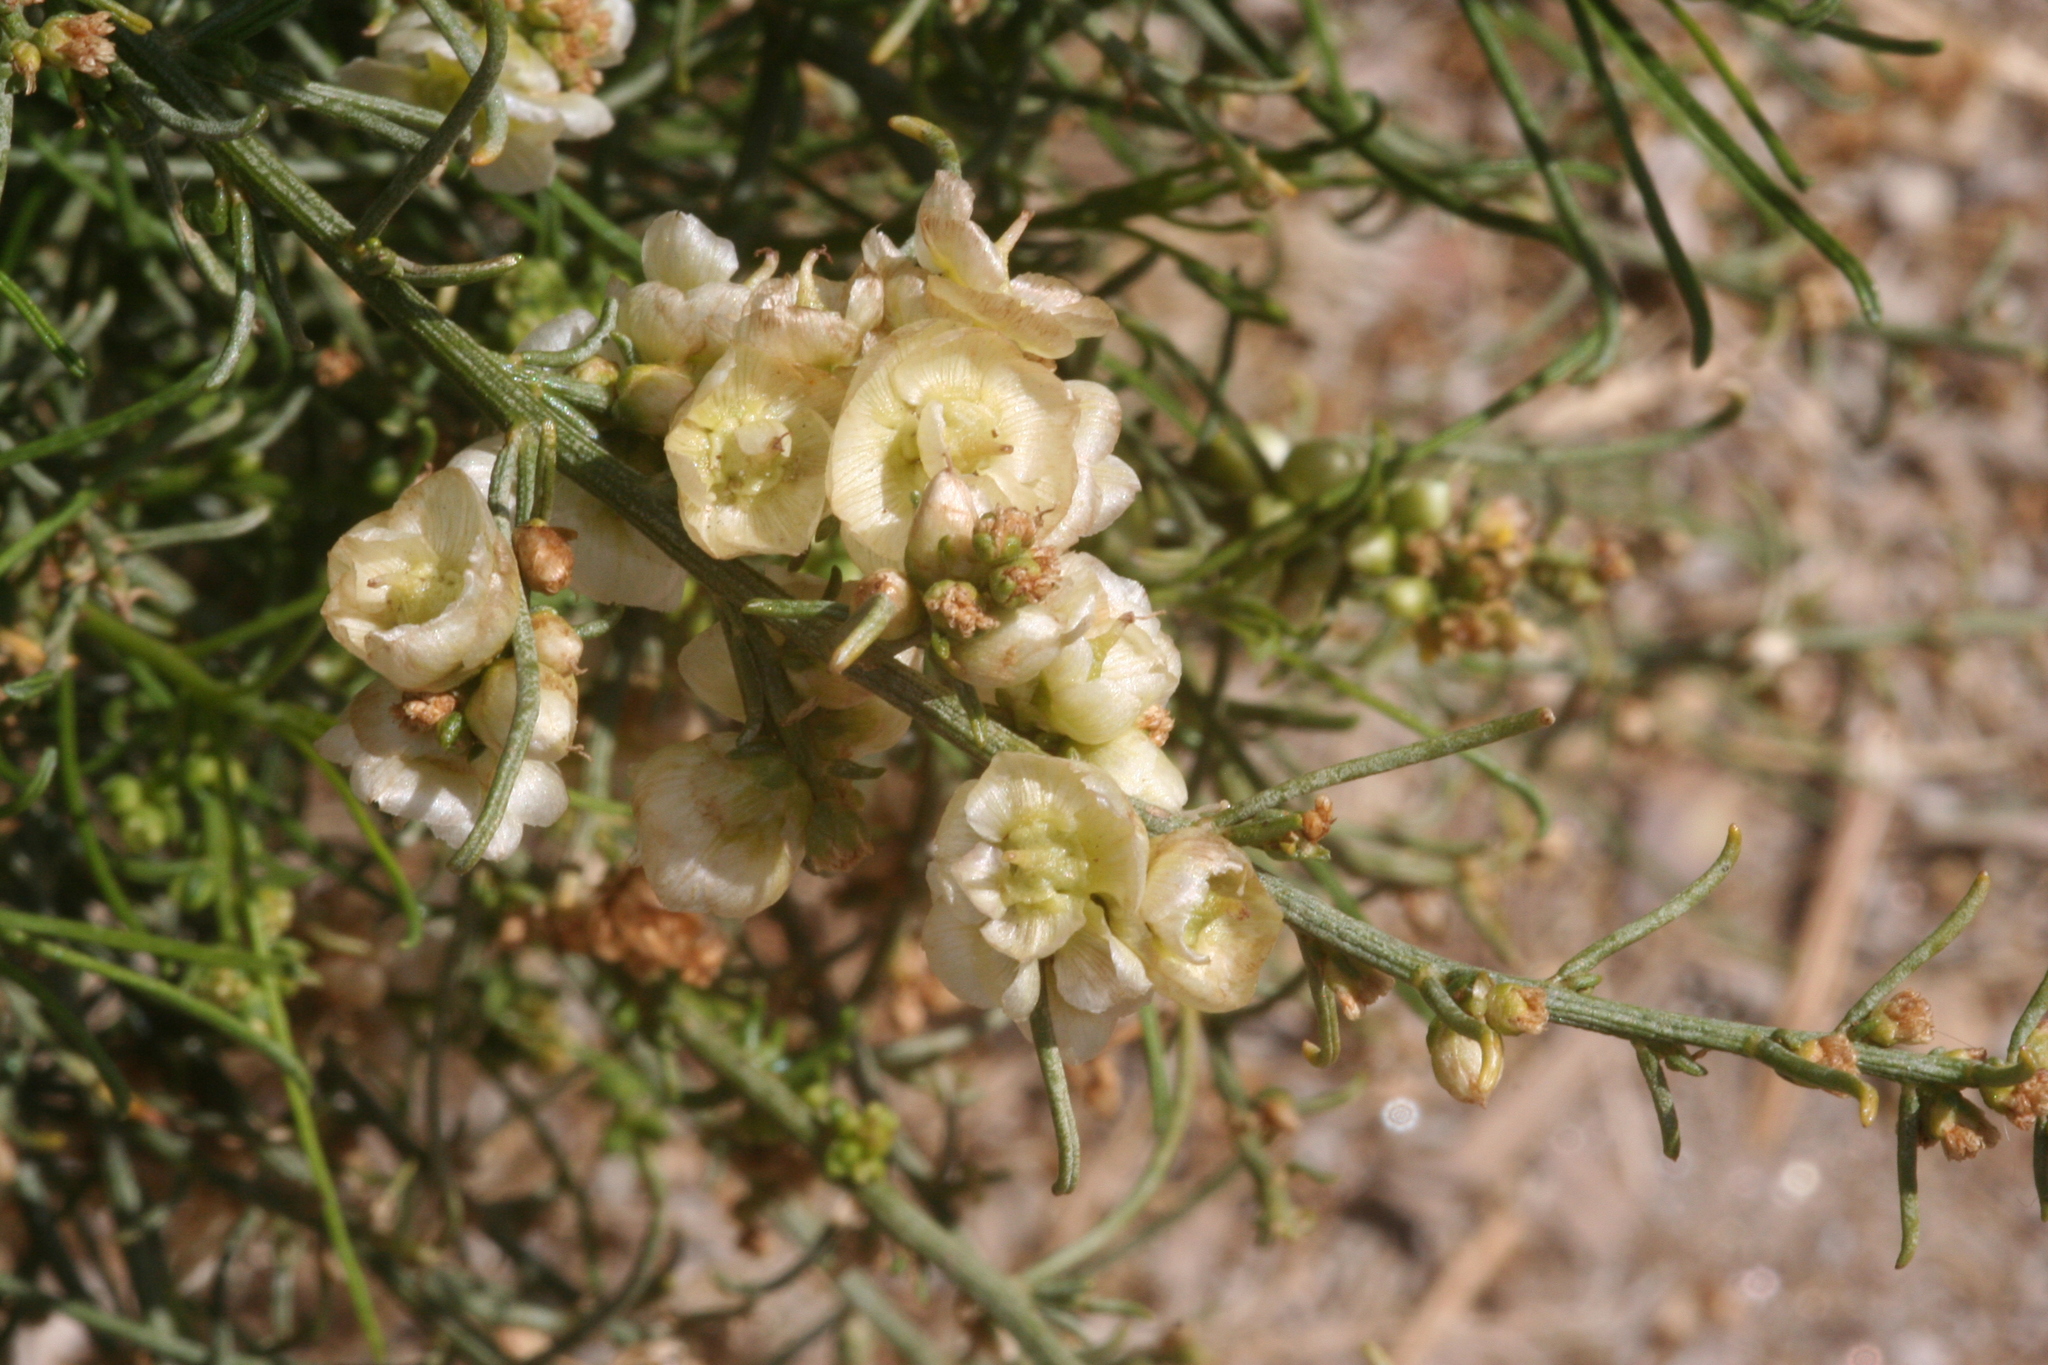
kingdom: Plantae
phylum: Tracheophyta
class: Magnoliopsida
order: Asterales
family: Asteraceae
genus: Ambrosia
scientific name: Ambrosia salsola
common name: Burrobrush
